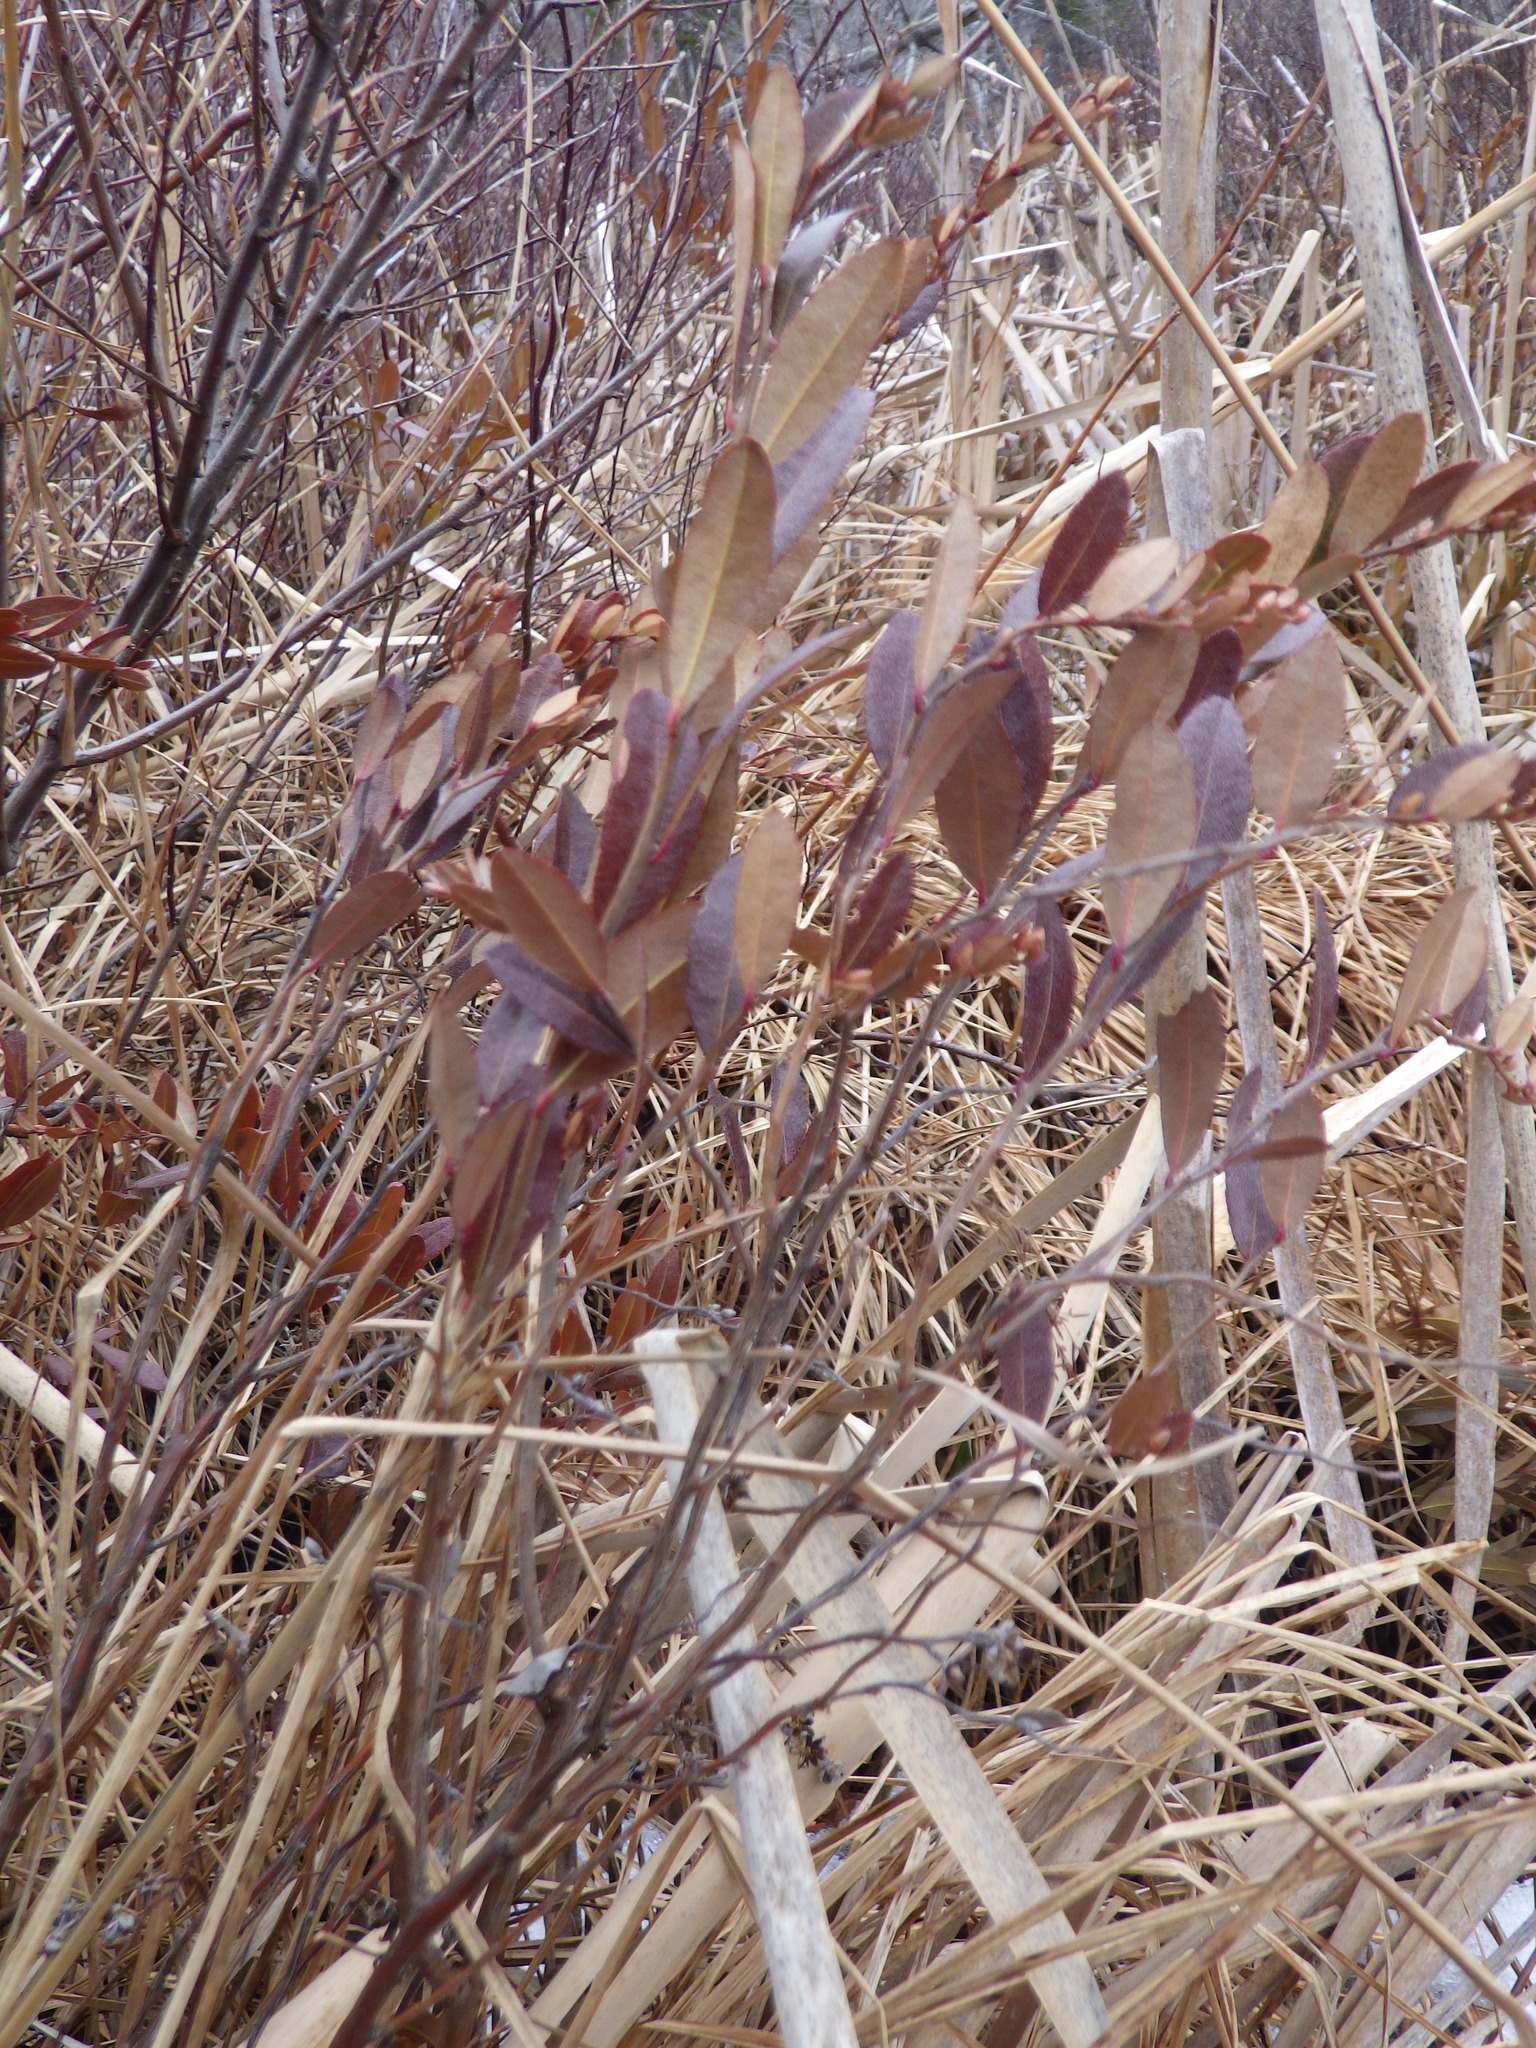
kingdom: Plantae
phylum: Tracheophyta
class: Magnoliopsida
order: Ericales
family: Ericaceae
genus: Chamaedaphne
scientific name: Chamaedaphne calyculata
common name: Leatherleaf
